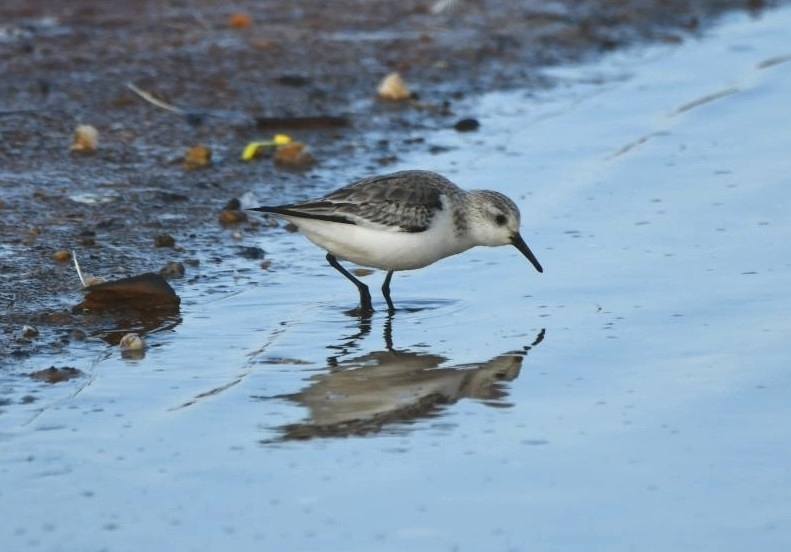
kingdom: Animalia
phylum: Chordata
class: Aves
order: Charadriiformes
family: Scolopacidae
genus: Calidris
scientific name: Calidris alba
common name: Sanderling
